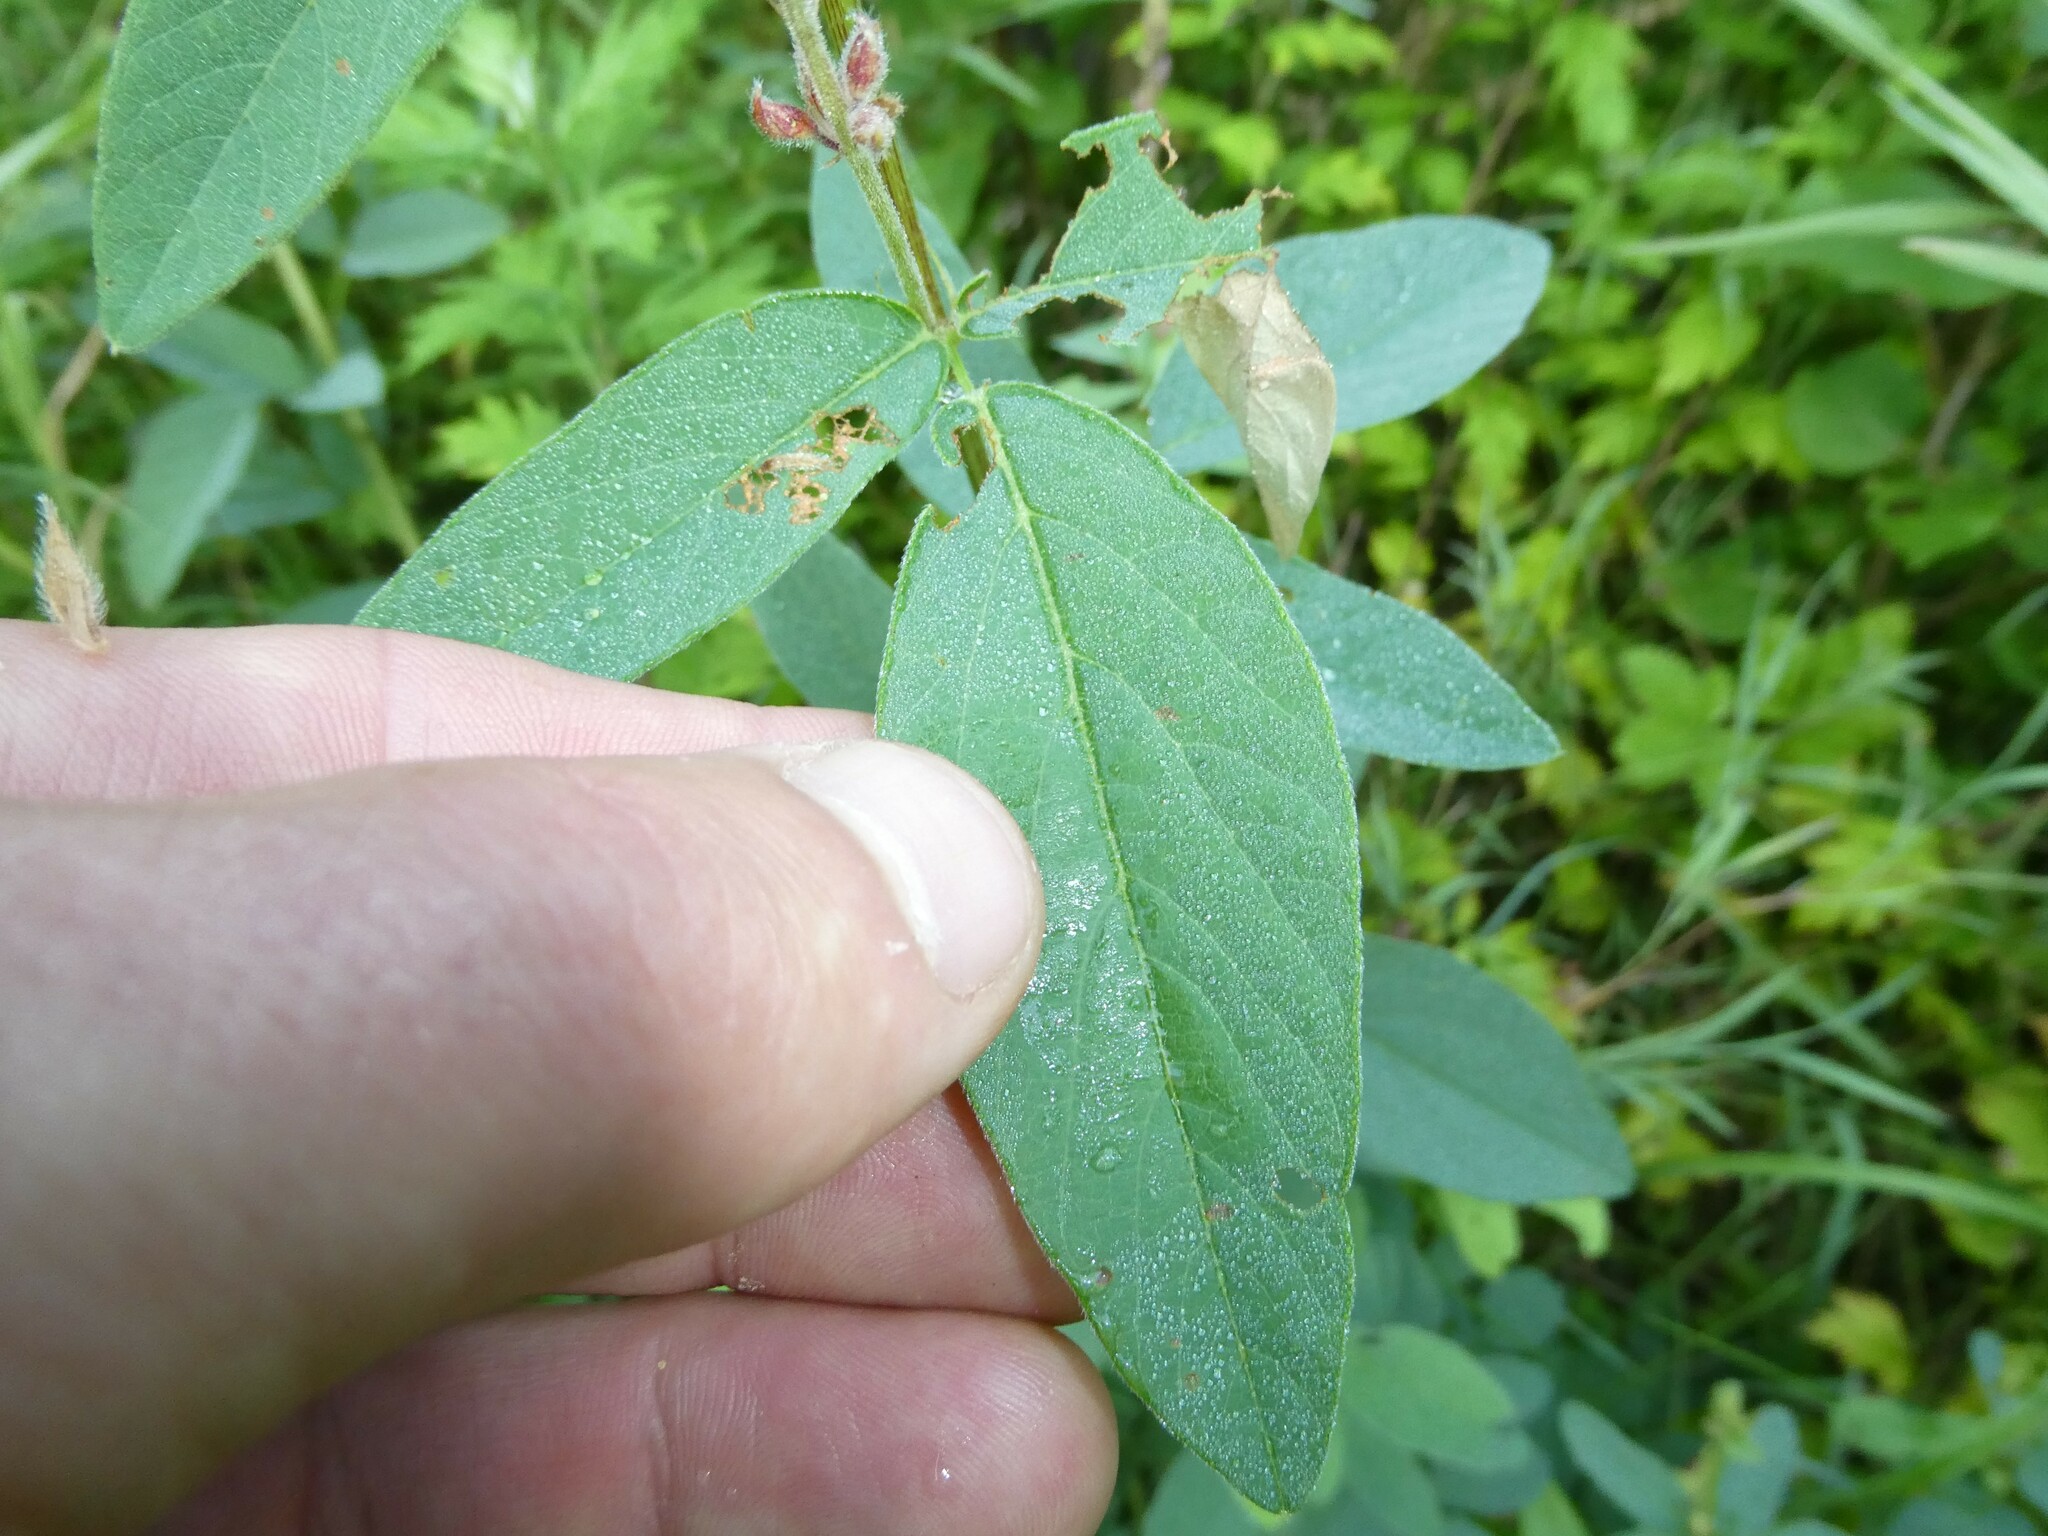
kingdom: Plantae
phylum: Tracheophyta
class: Magnoliopsida
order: Fabales
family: Fabaceae
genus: Desmodium
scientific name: Desmodium canadense
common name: Canada tick-trefoil
